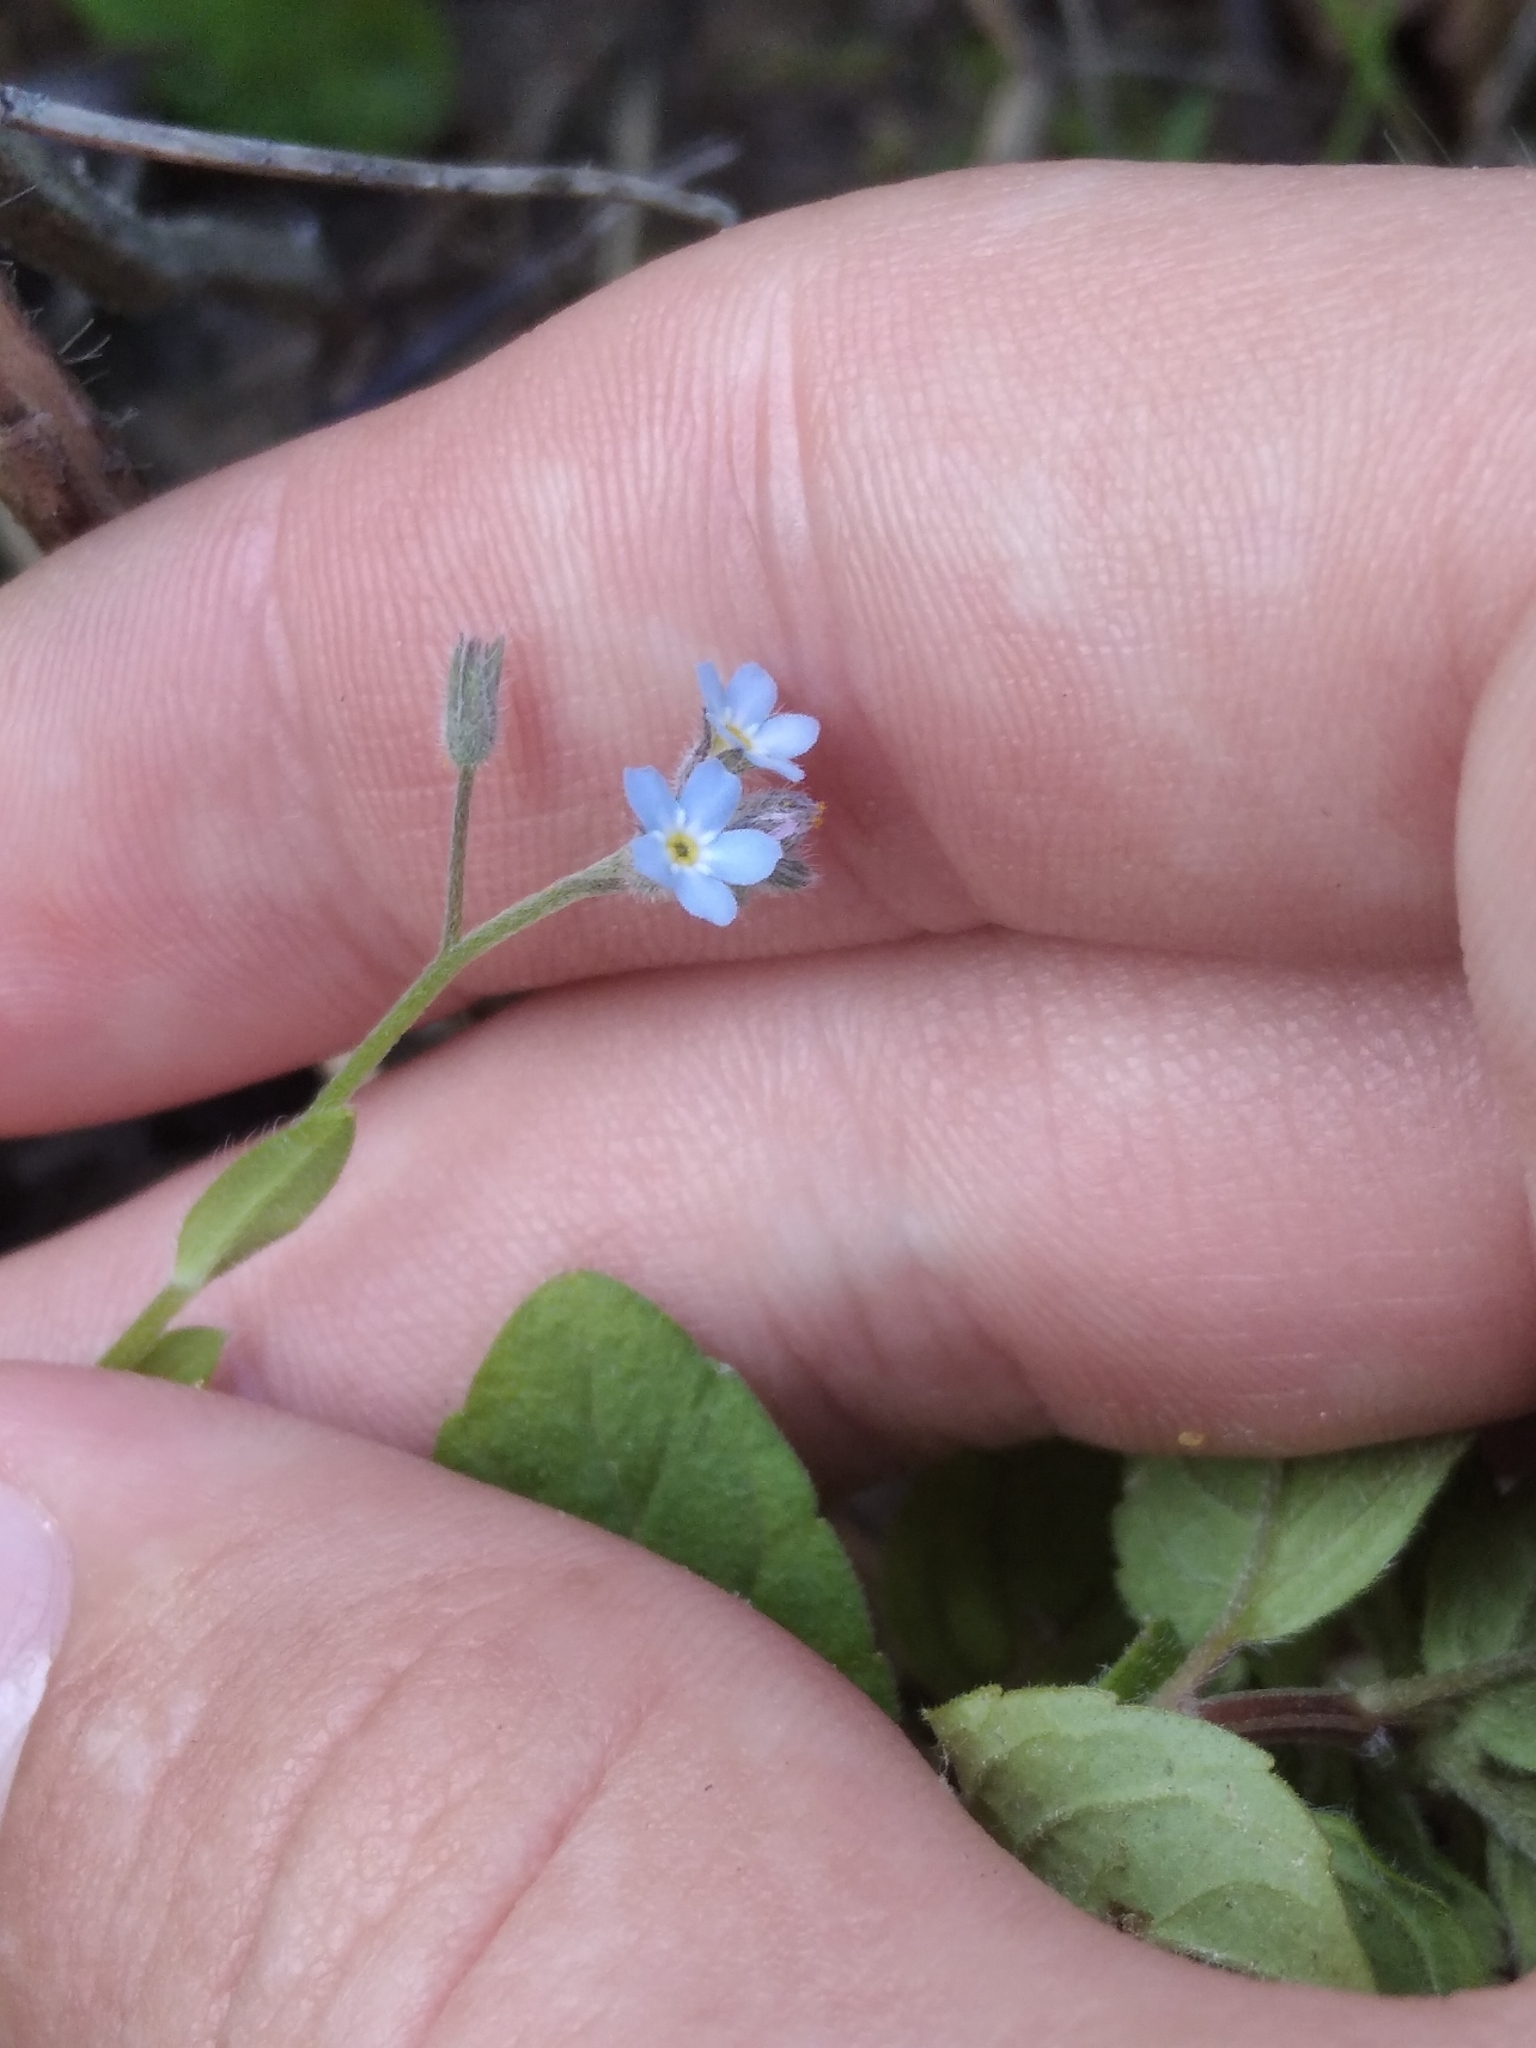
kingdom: Plantae
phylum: Tracheophyta
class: Magnoliopsida
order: Boraginales
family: Boraginaceae
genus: Myosotis
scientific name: Myosotis arvensis
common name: Field forget-me-not
